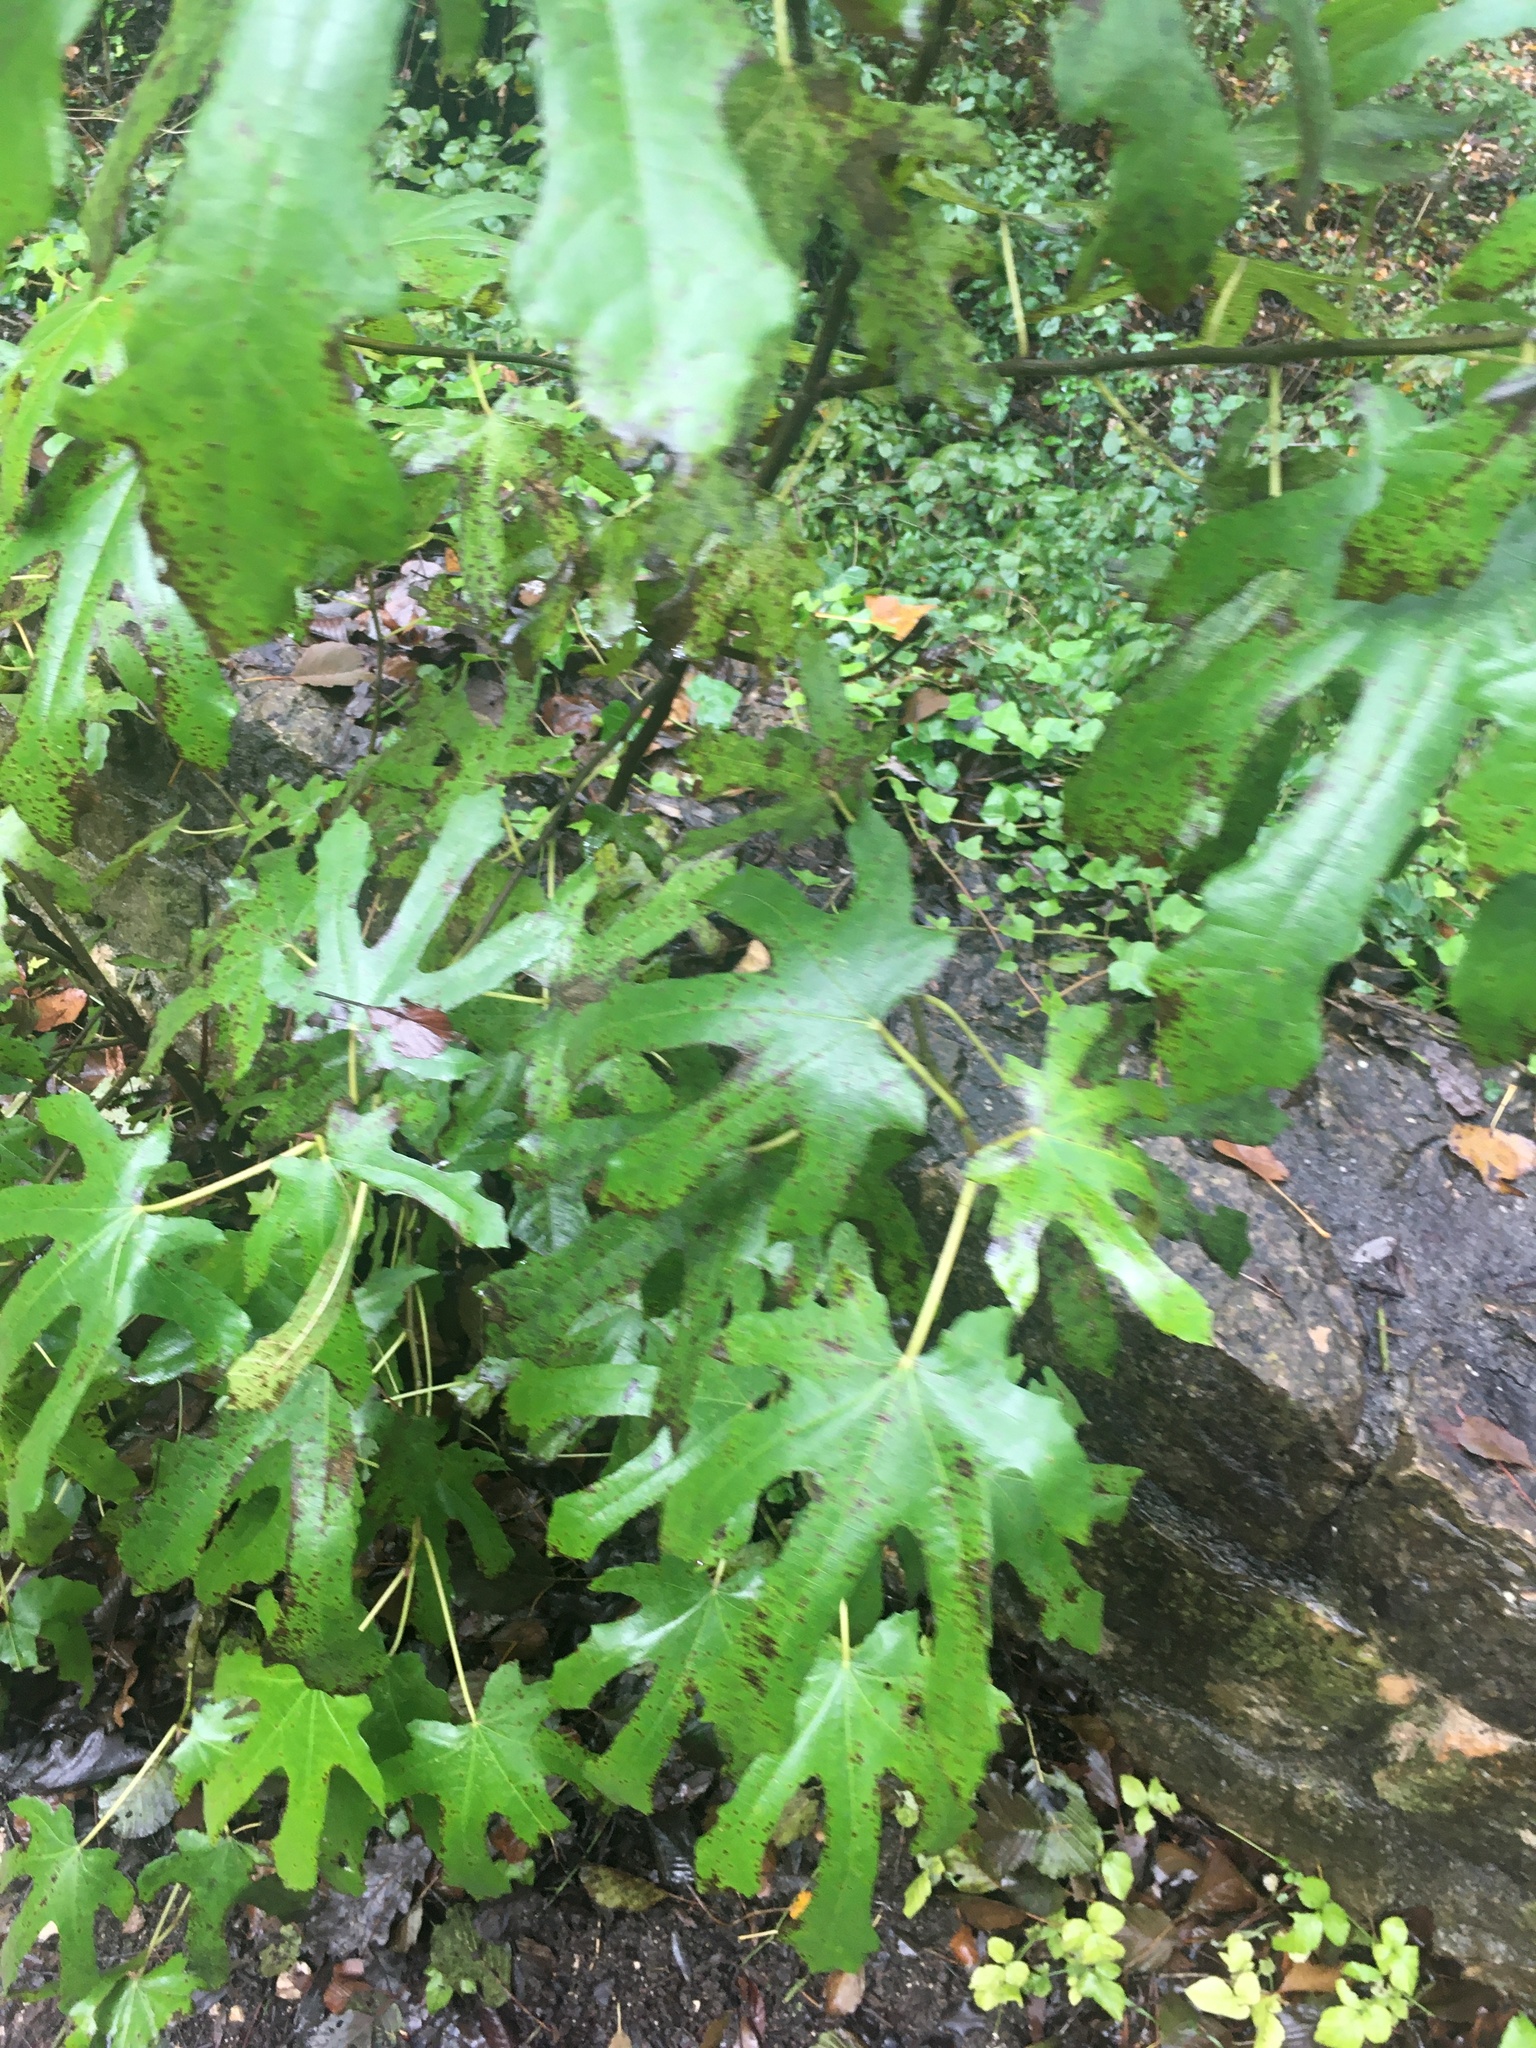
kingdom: Plantae
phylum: Tracheophyta
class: Magnoliopsida
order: Rosales
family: Moraceae
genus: Ficus
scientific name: Ficus carica
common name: Fig
